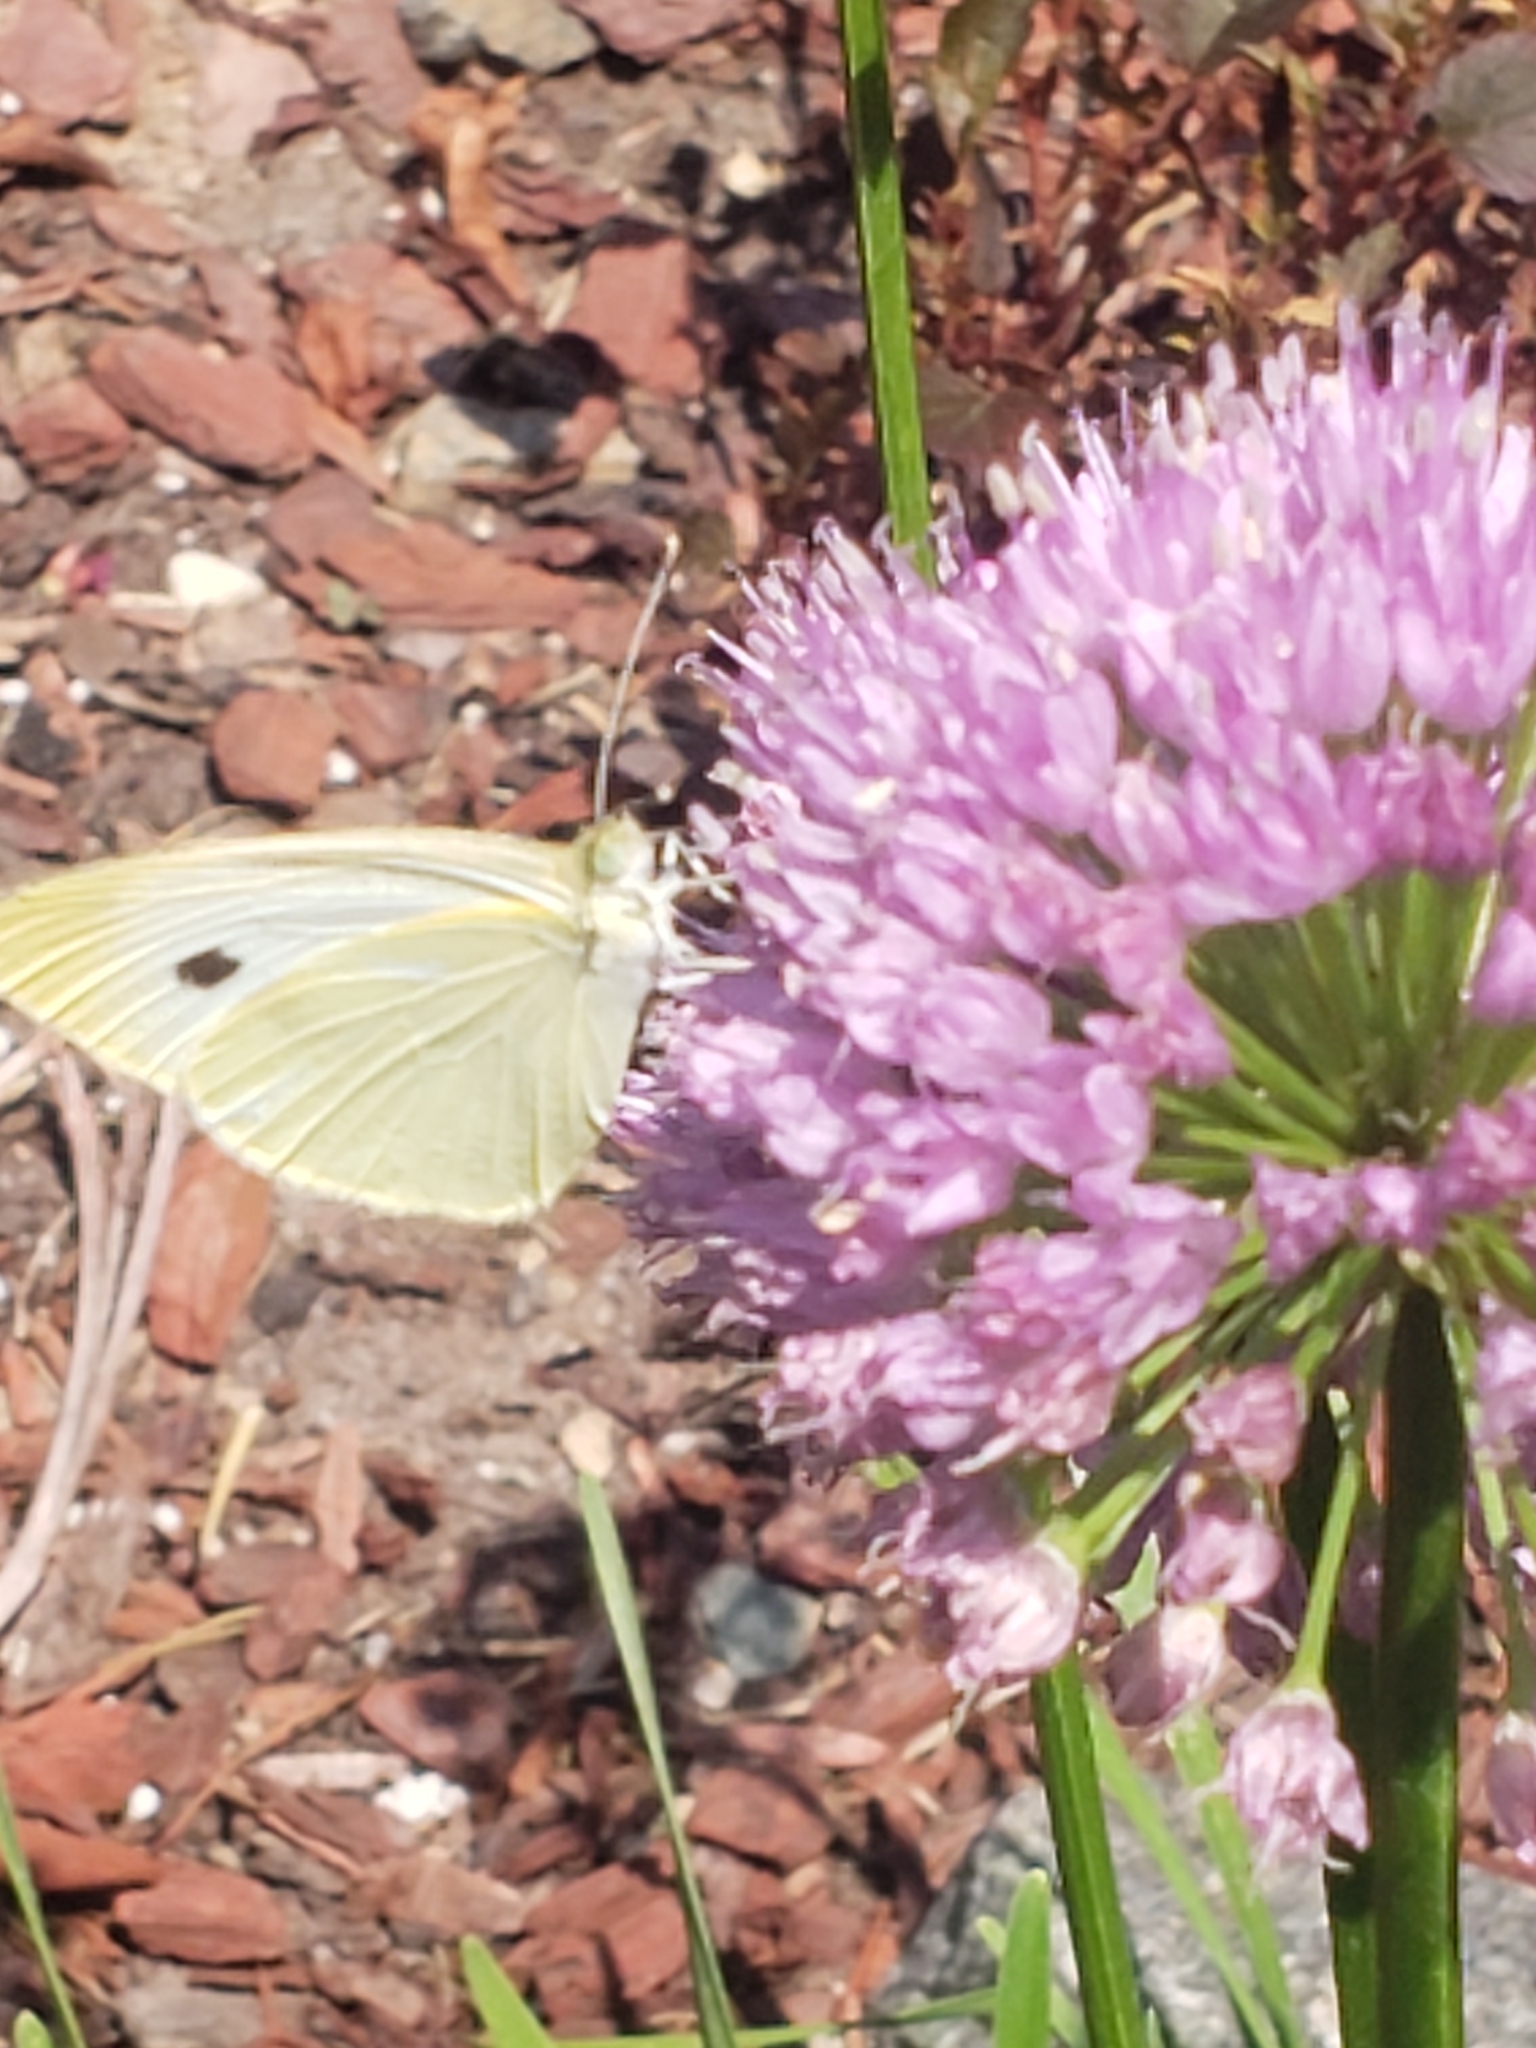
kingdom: Animalia
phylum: Arthropoda
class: Insecta
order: Lepidoptera
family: Pieridae
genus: Pieris
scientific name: Pieris rapae
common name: Small white
